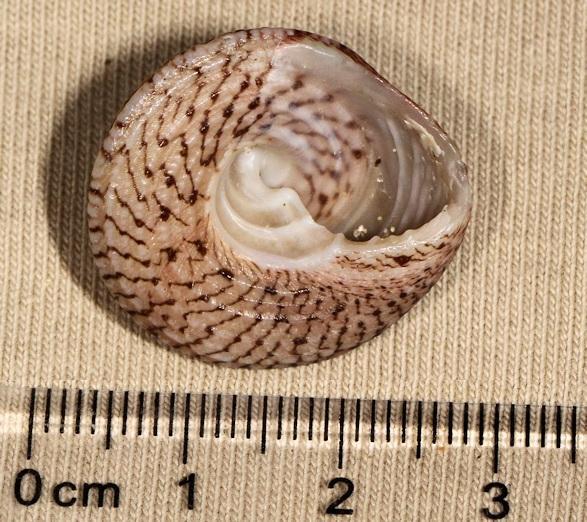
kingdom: Animalia
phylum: Mollusca
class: Gastropoda
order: Trochida
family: Trochidae
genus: Trochus
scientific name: Trochus nigropunctatus
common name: Black-spotted topshell
